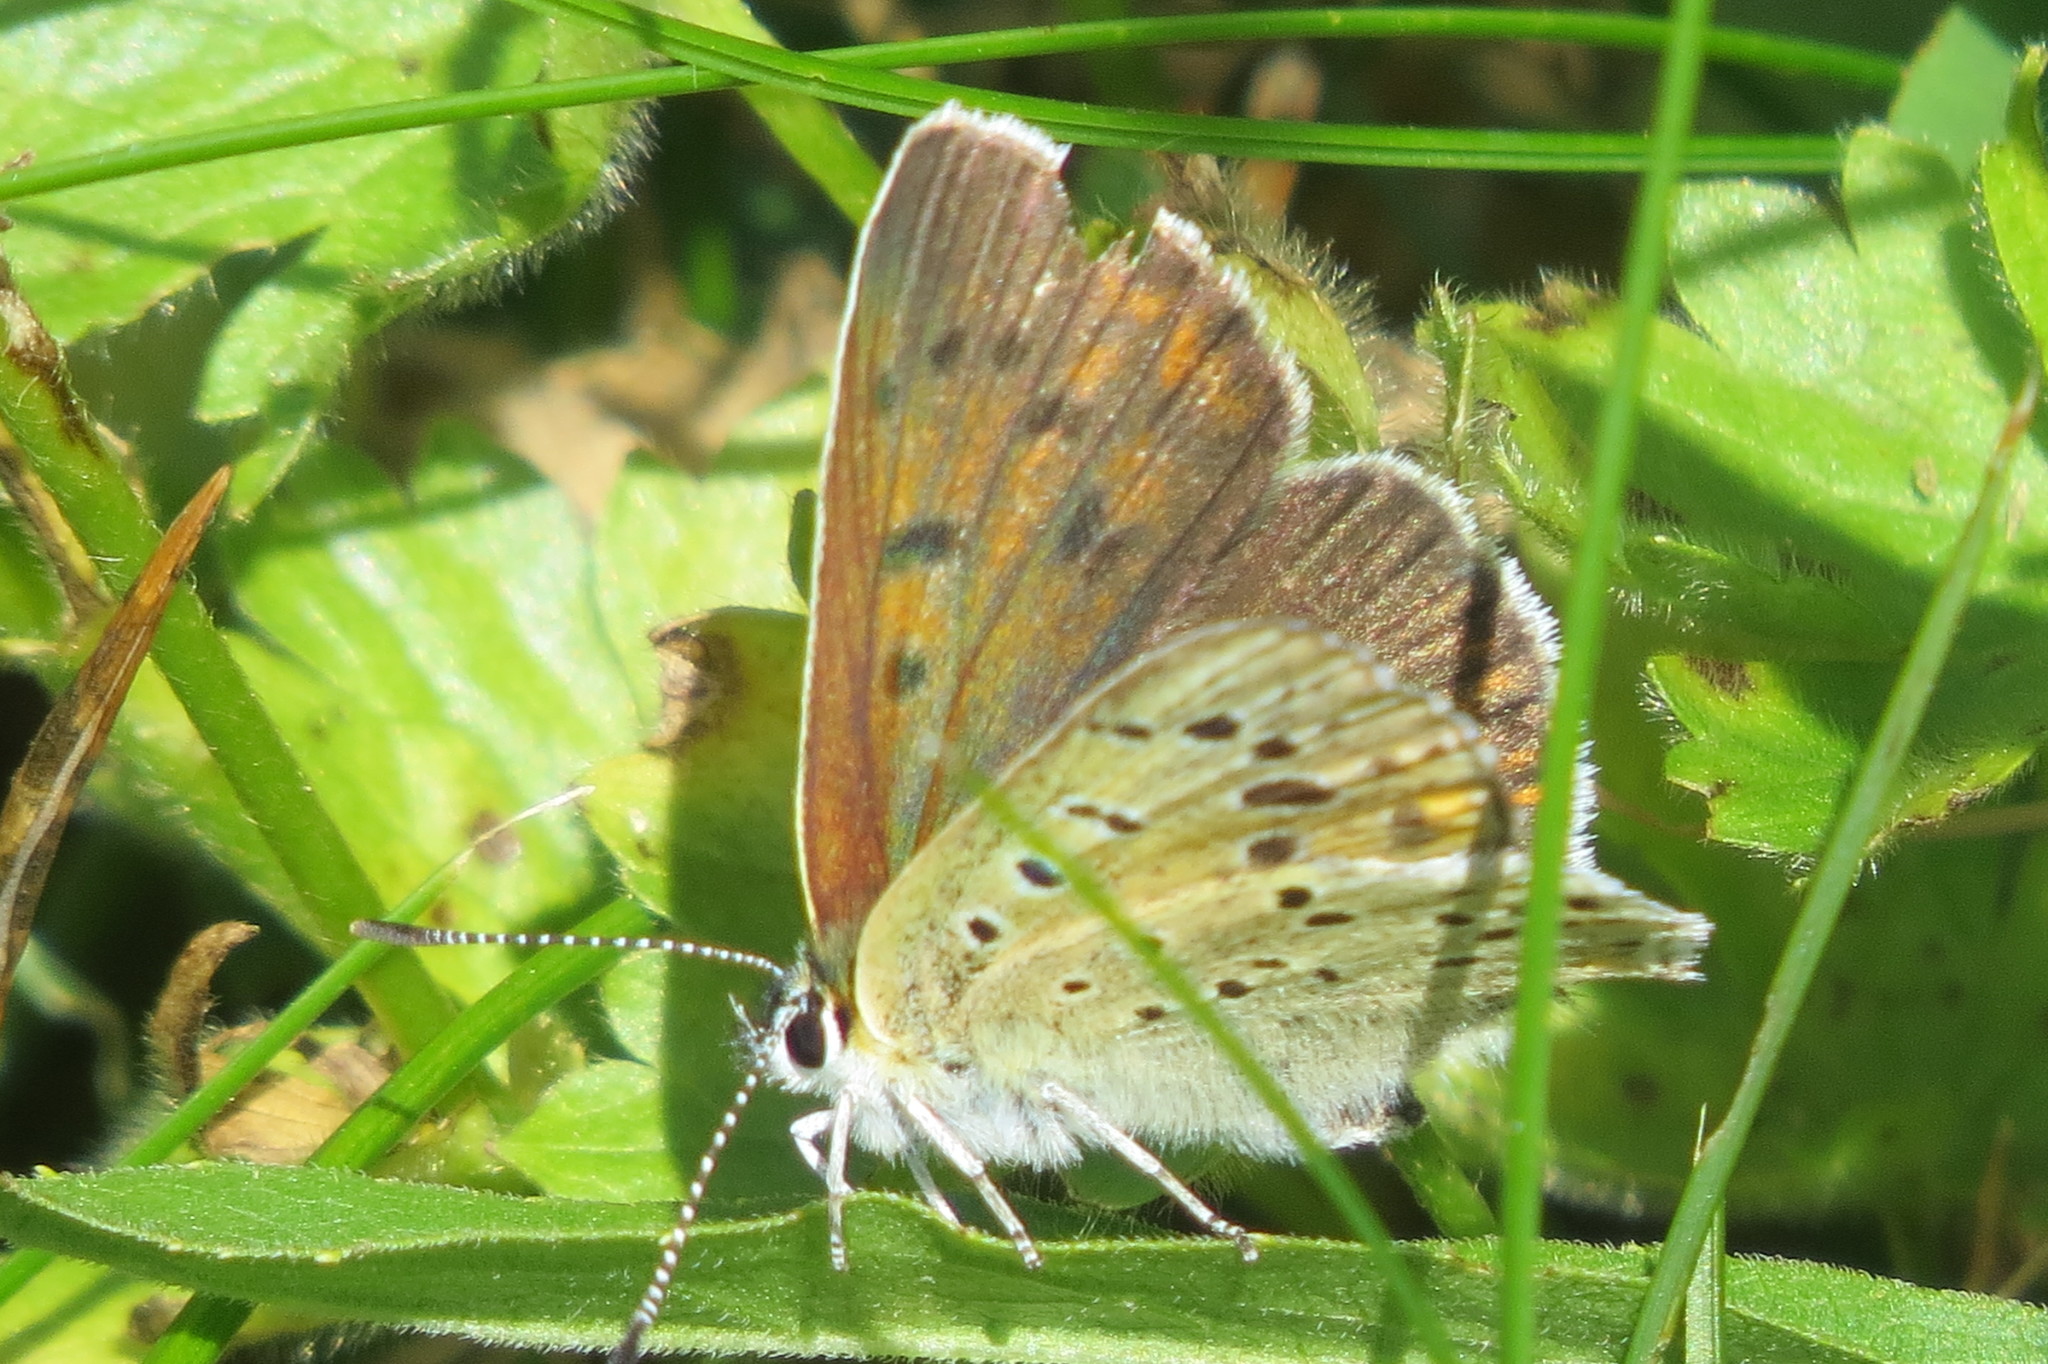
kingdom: Animalia
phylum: Arthropoda
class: Insecta
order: Lepidoptera
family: Lycaenidae
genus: Loweia
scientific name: Loweia tityrus
